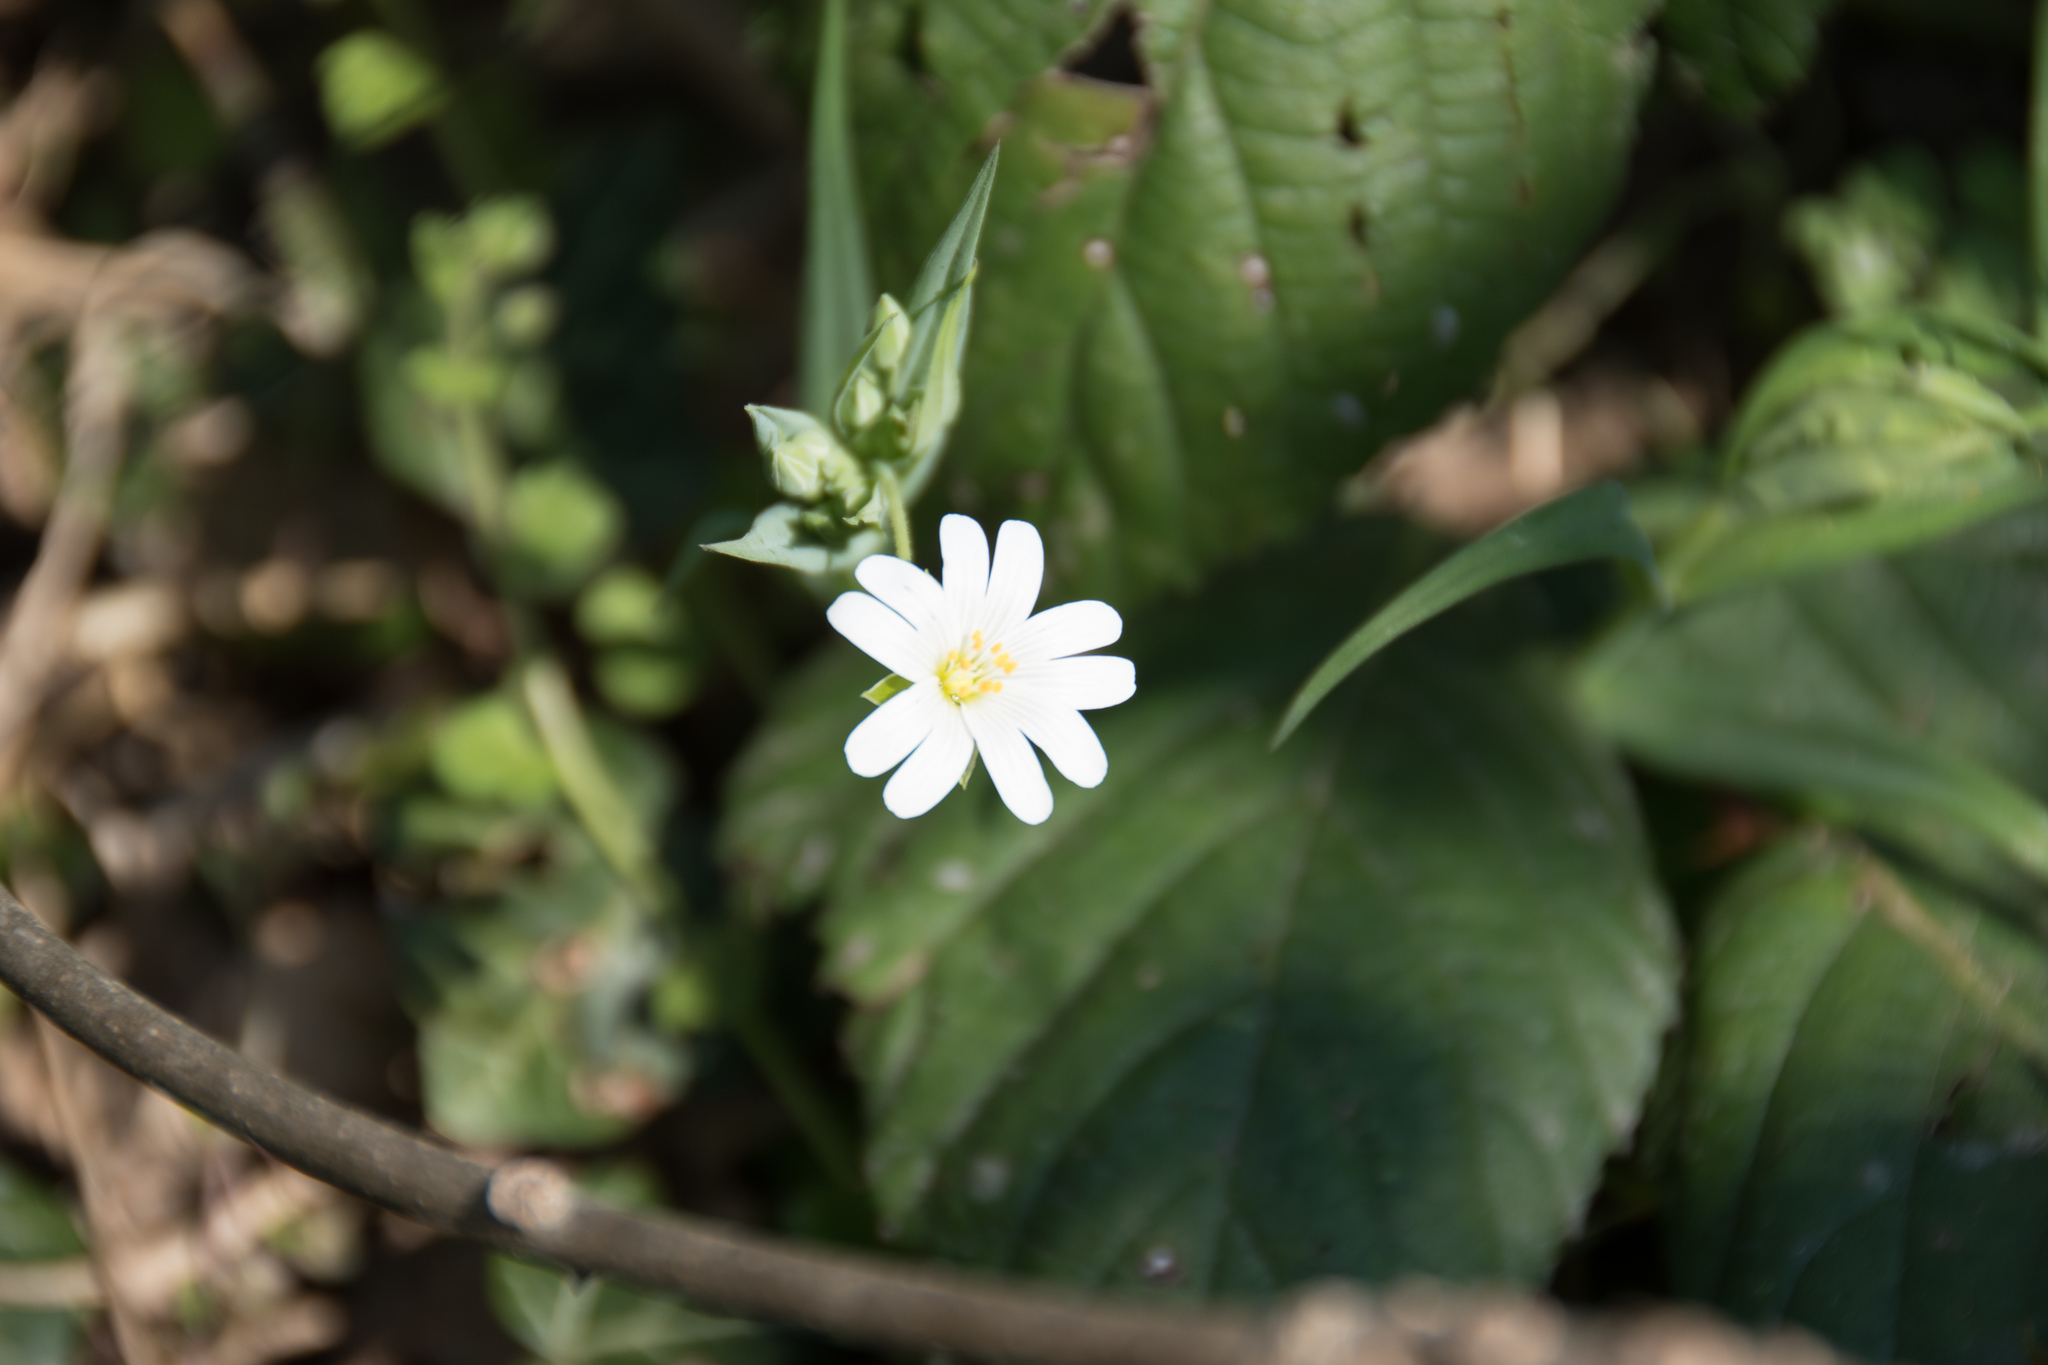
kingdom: Plantae
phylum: Tracheophyta
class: Magnoliopsida
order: Caryophyllales
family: Caryophyllaceae
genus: Rabelera
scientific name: Rabelera holostea
